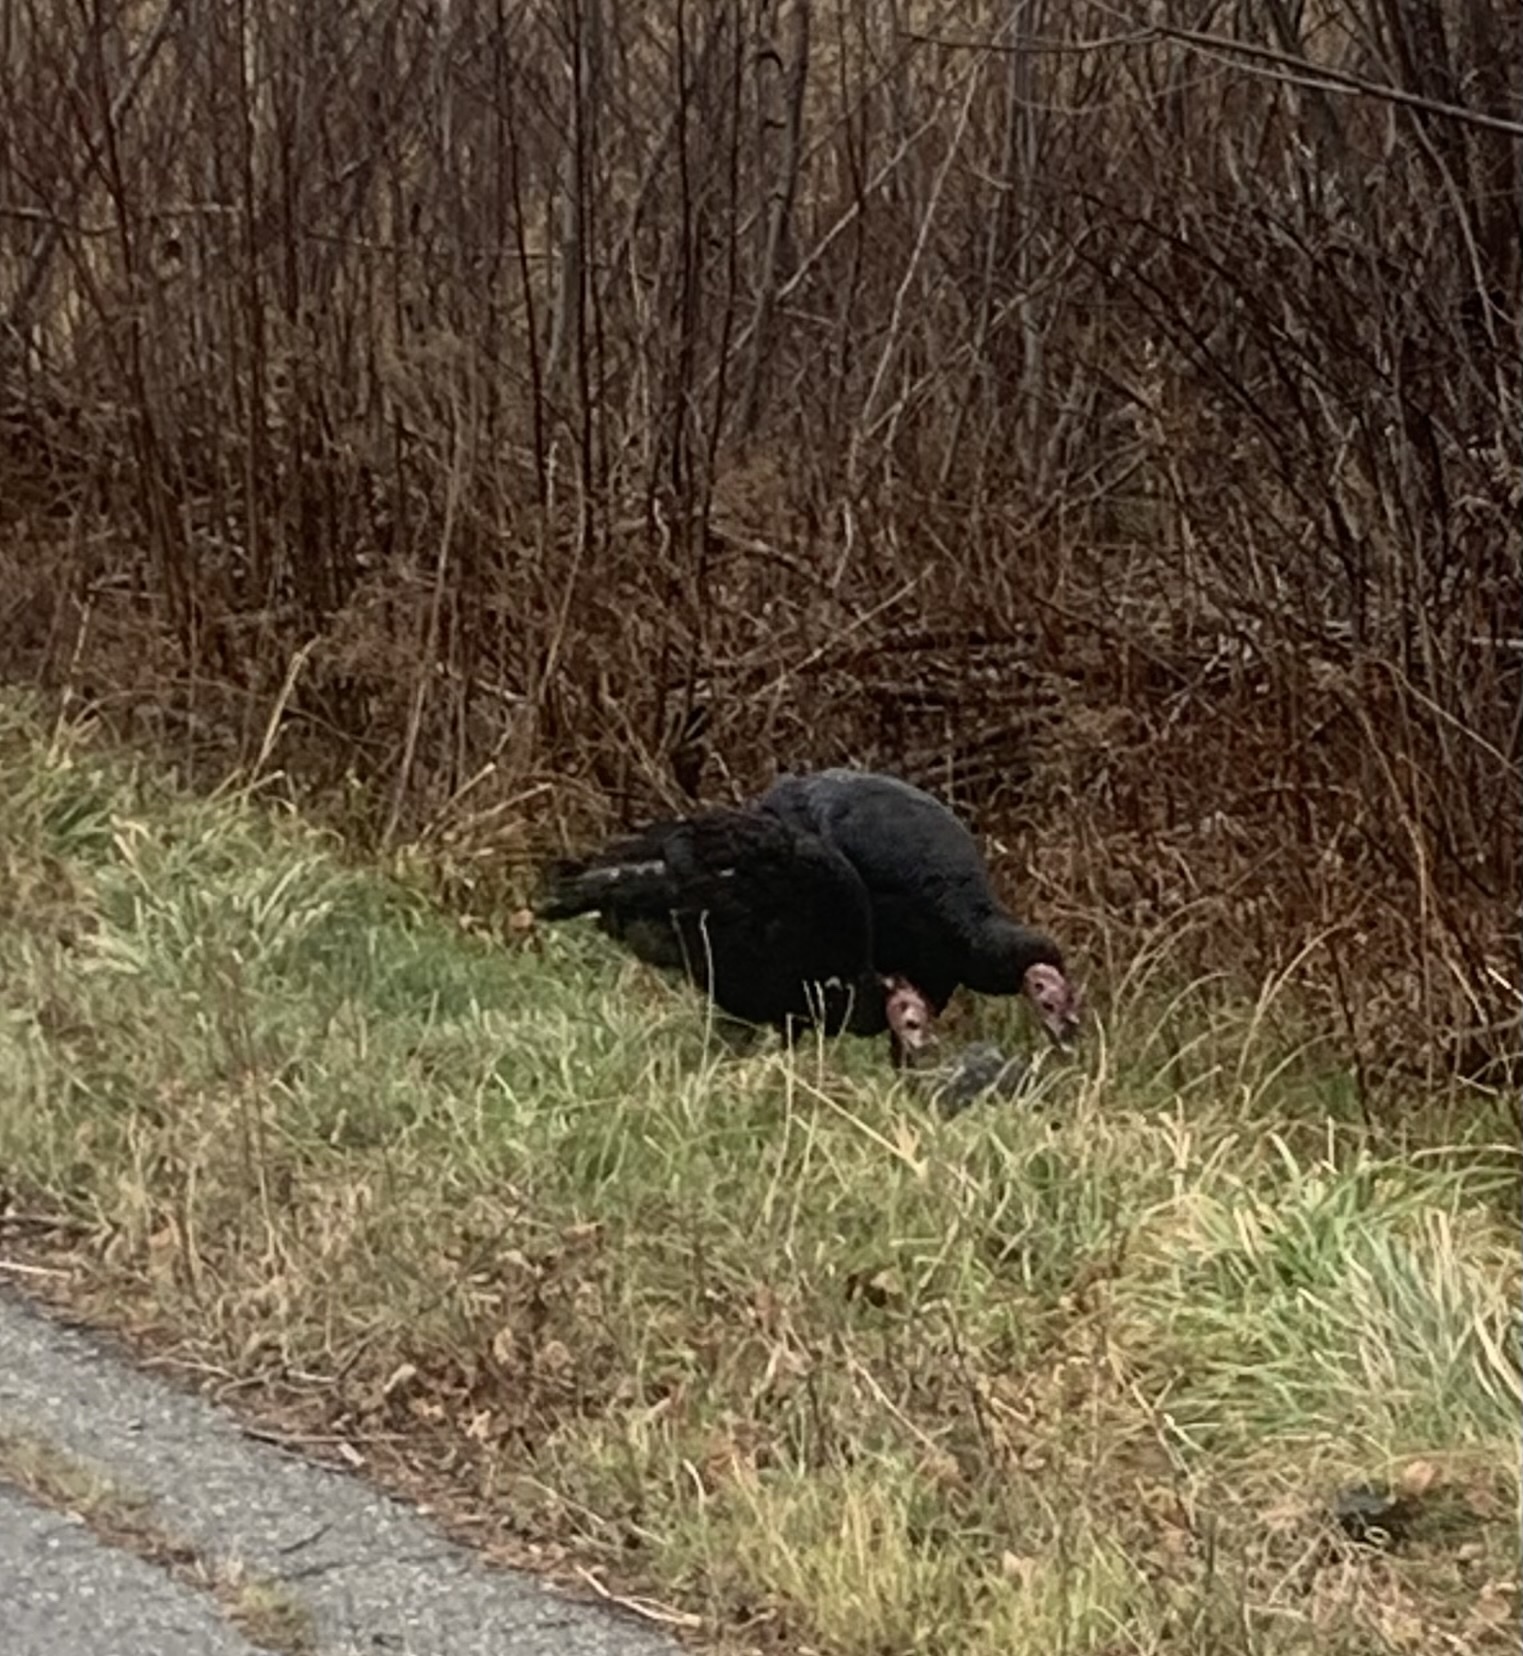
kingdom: Animalia
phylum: Chordata
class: Aves
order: Accipitriformes
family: Cathartidae
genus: Cathartes
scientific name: Cathartes aura
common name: Turkey vulture
